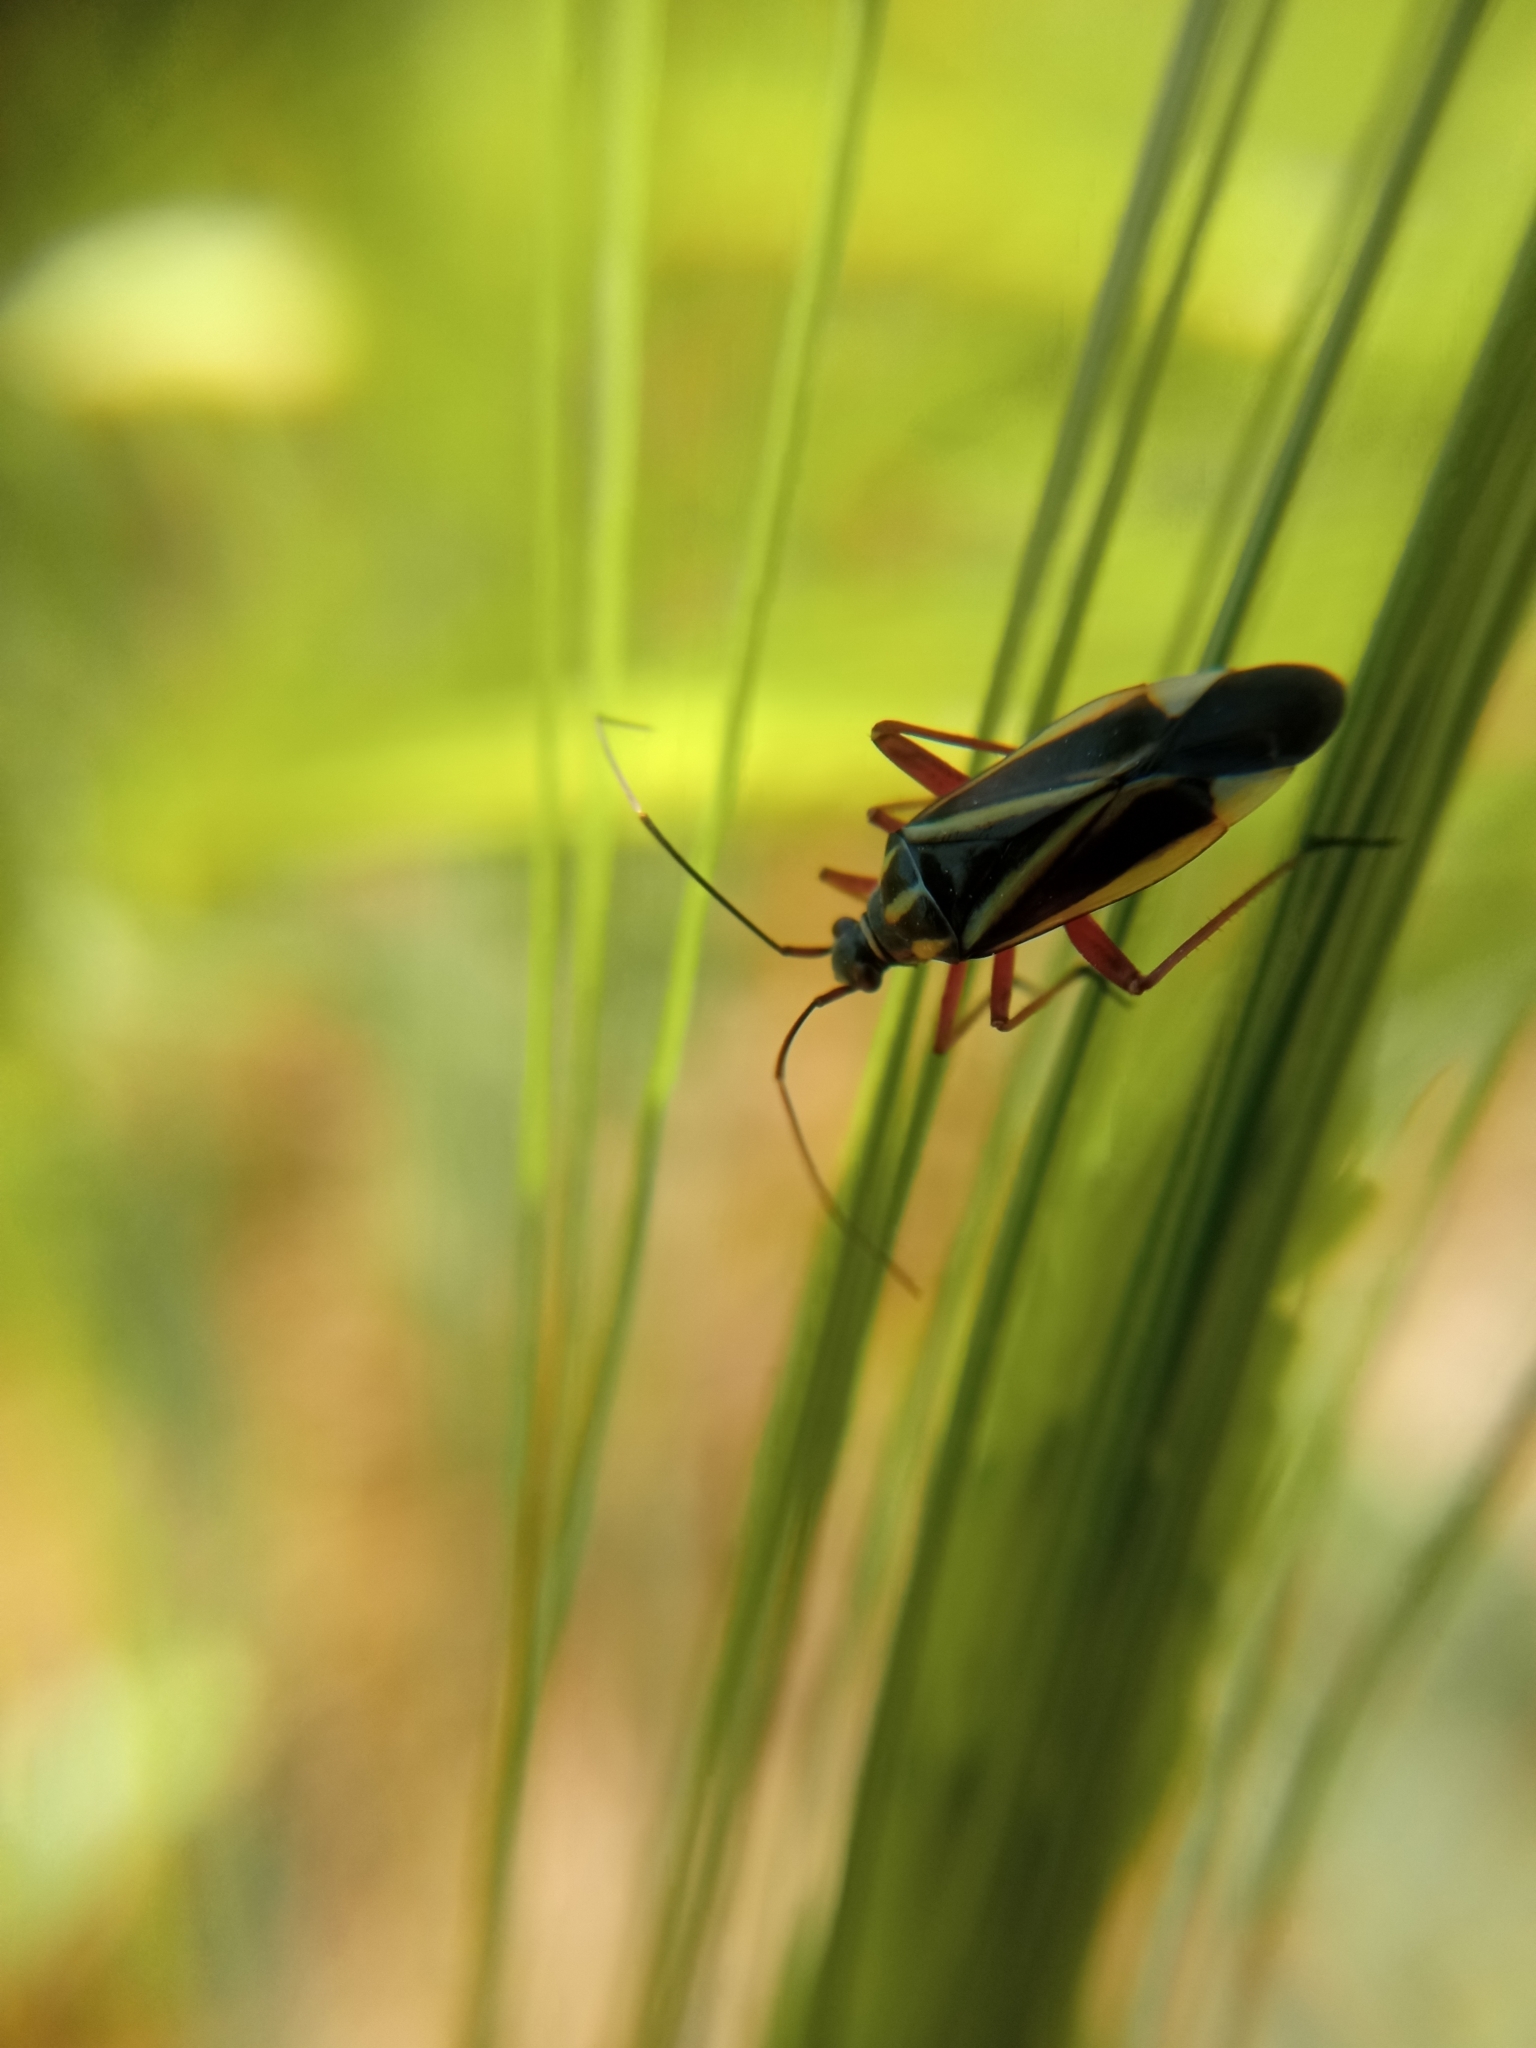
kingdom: Animalia
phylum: Arthropoda
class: Insecta
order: Hemiptera
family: Miridae
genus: Hadrodemus
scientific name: Hadrodemus m-flavum
